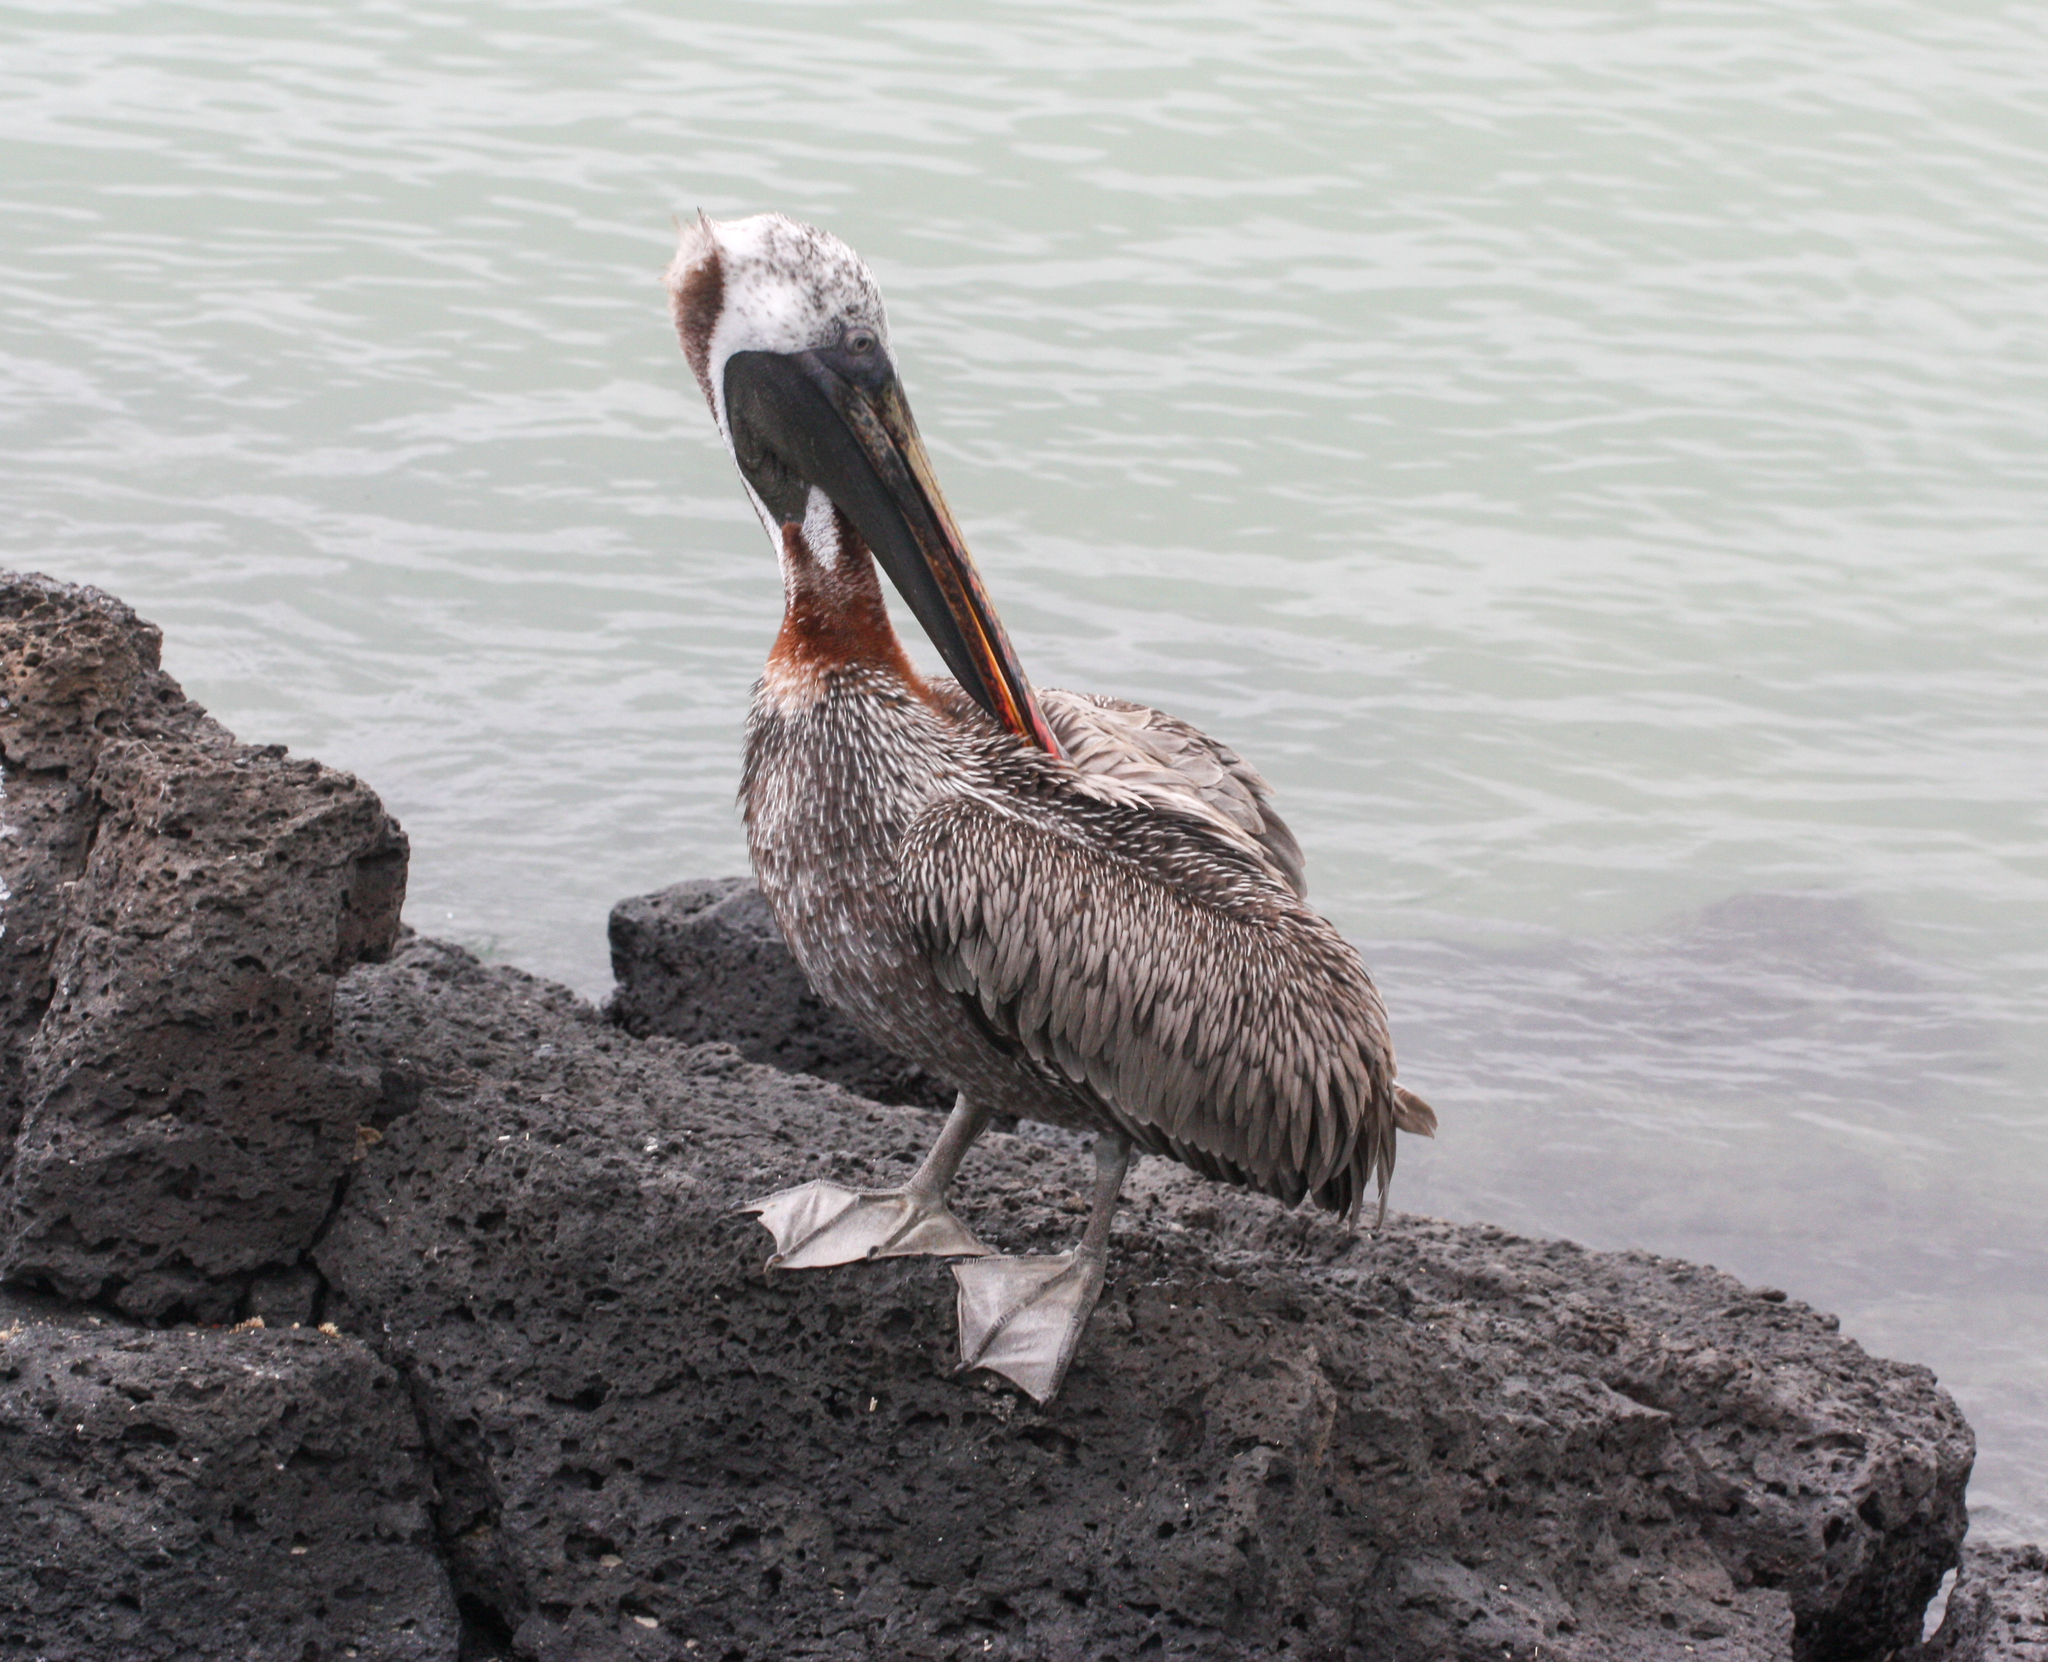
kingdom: Animalia
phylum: Chordata
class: Aves
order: Pelecaniformes
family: Pelecanidae
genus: Pelecanus
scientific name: Pelecanus occidentalis
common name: Brown pelican
